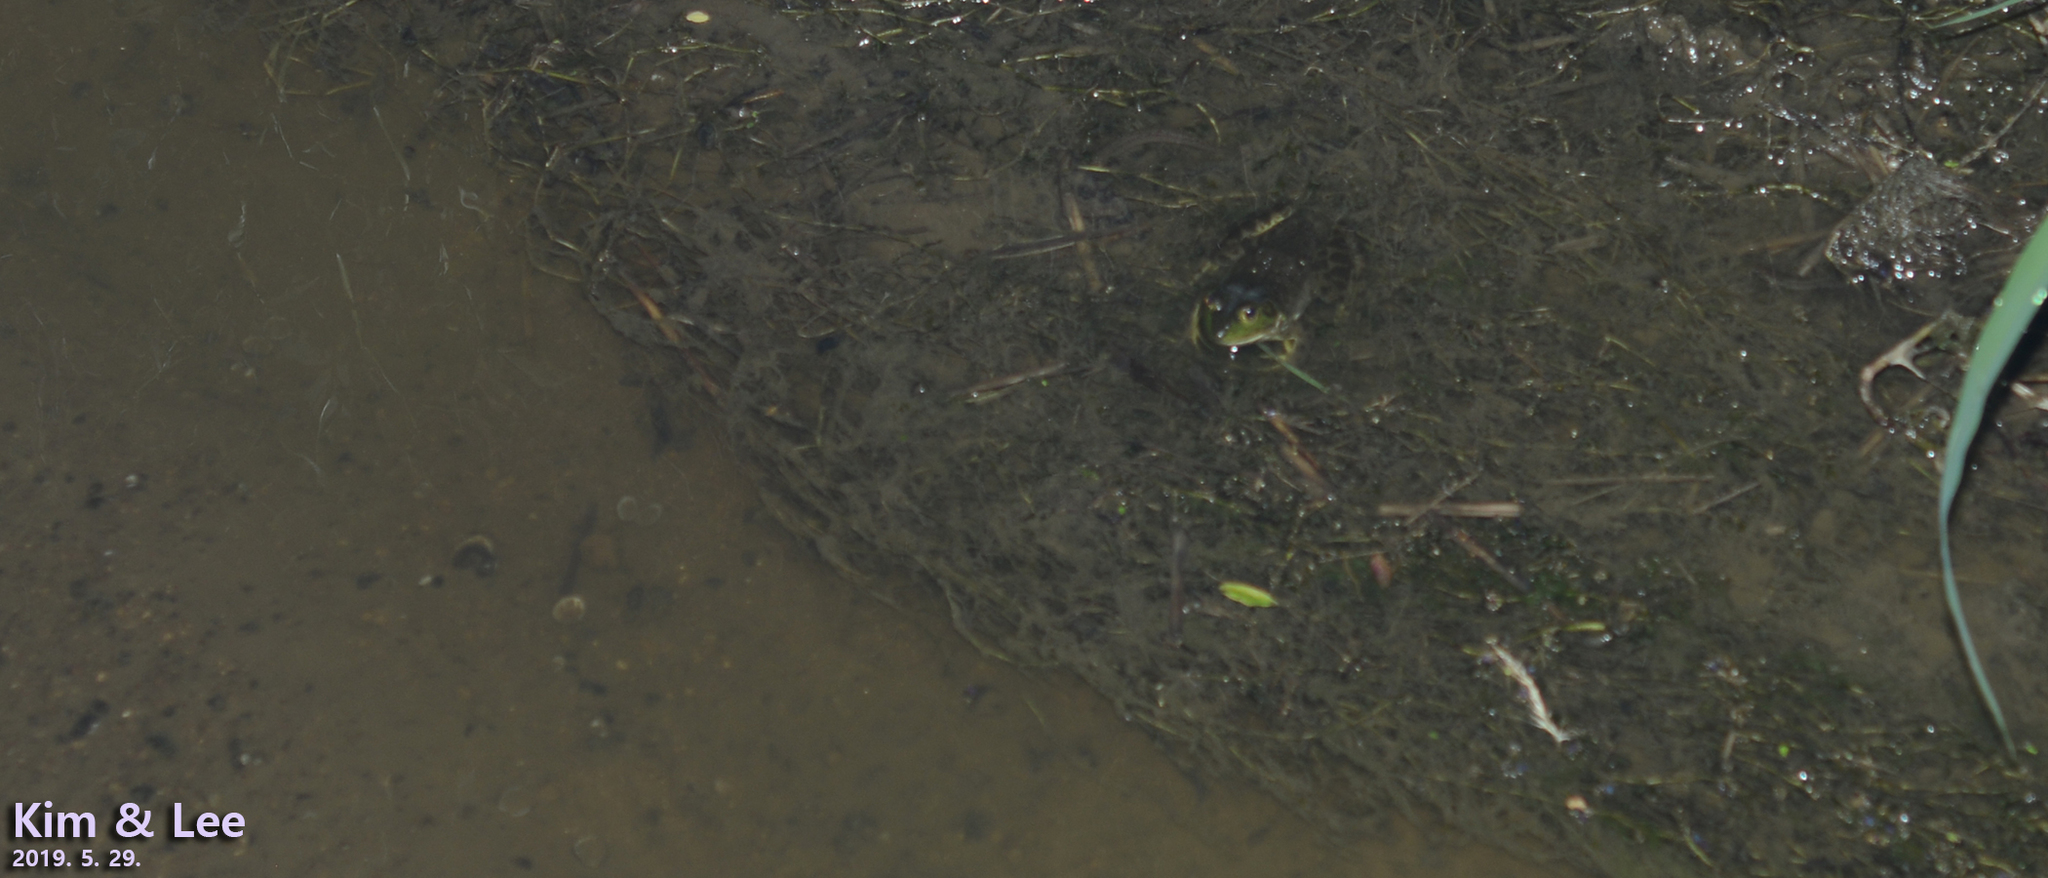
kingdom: Animalia
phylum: Chordata
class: Amphibia
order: Anura
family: Ranidae
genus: Lithobates
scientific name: Lithobates catesbeianus
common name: American bullfrog
